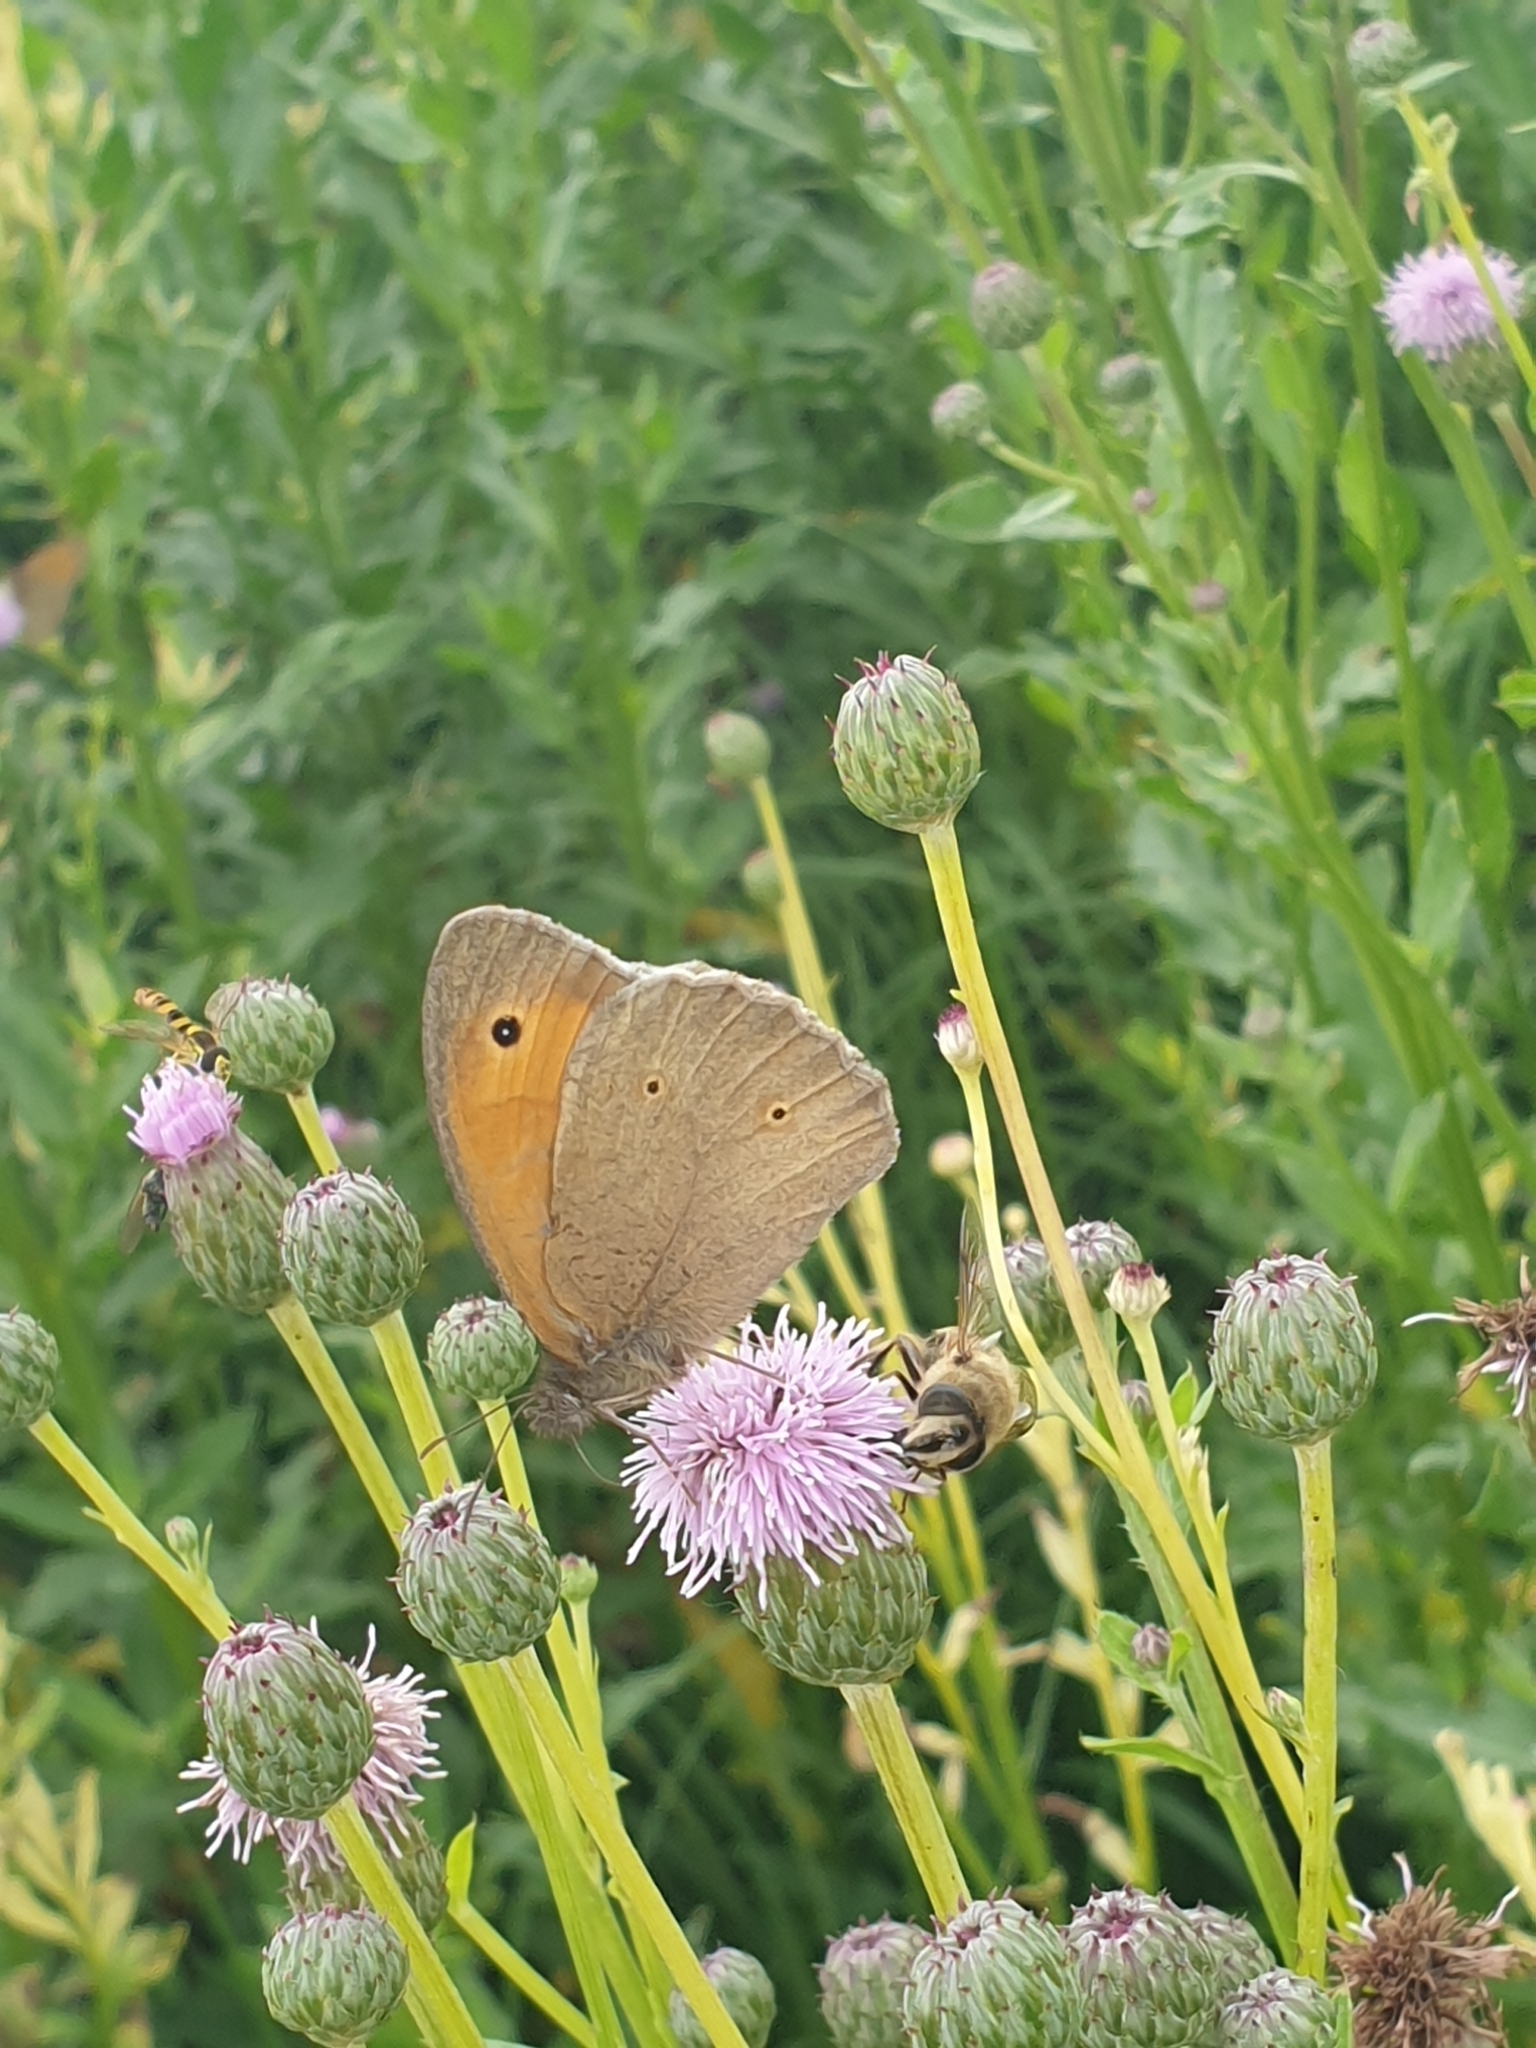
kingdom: Animalia
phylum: Arthropoda
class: Insecta
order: Lepidoptera
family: Nymphalidae
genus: Maniola
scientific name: Maniola jurtina
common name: Meadow brown
